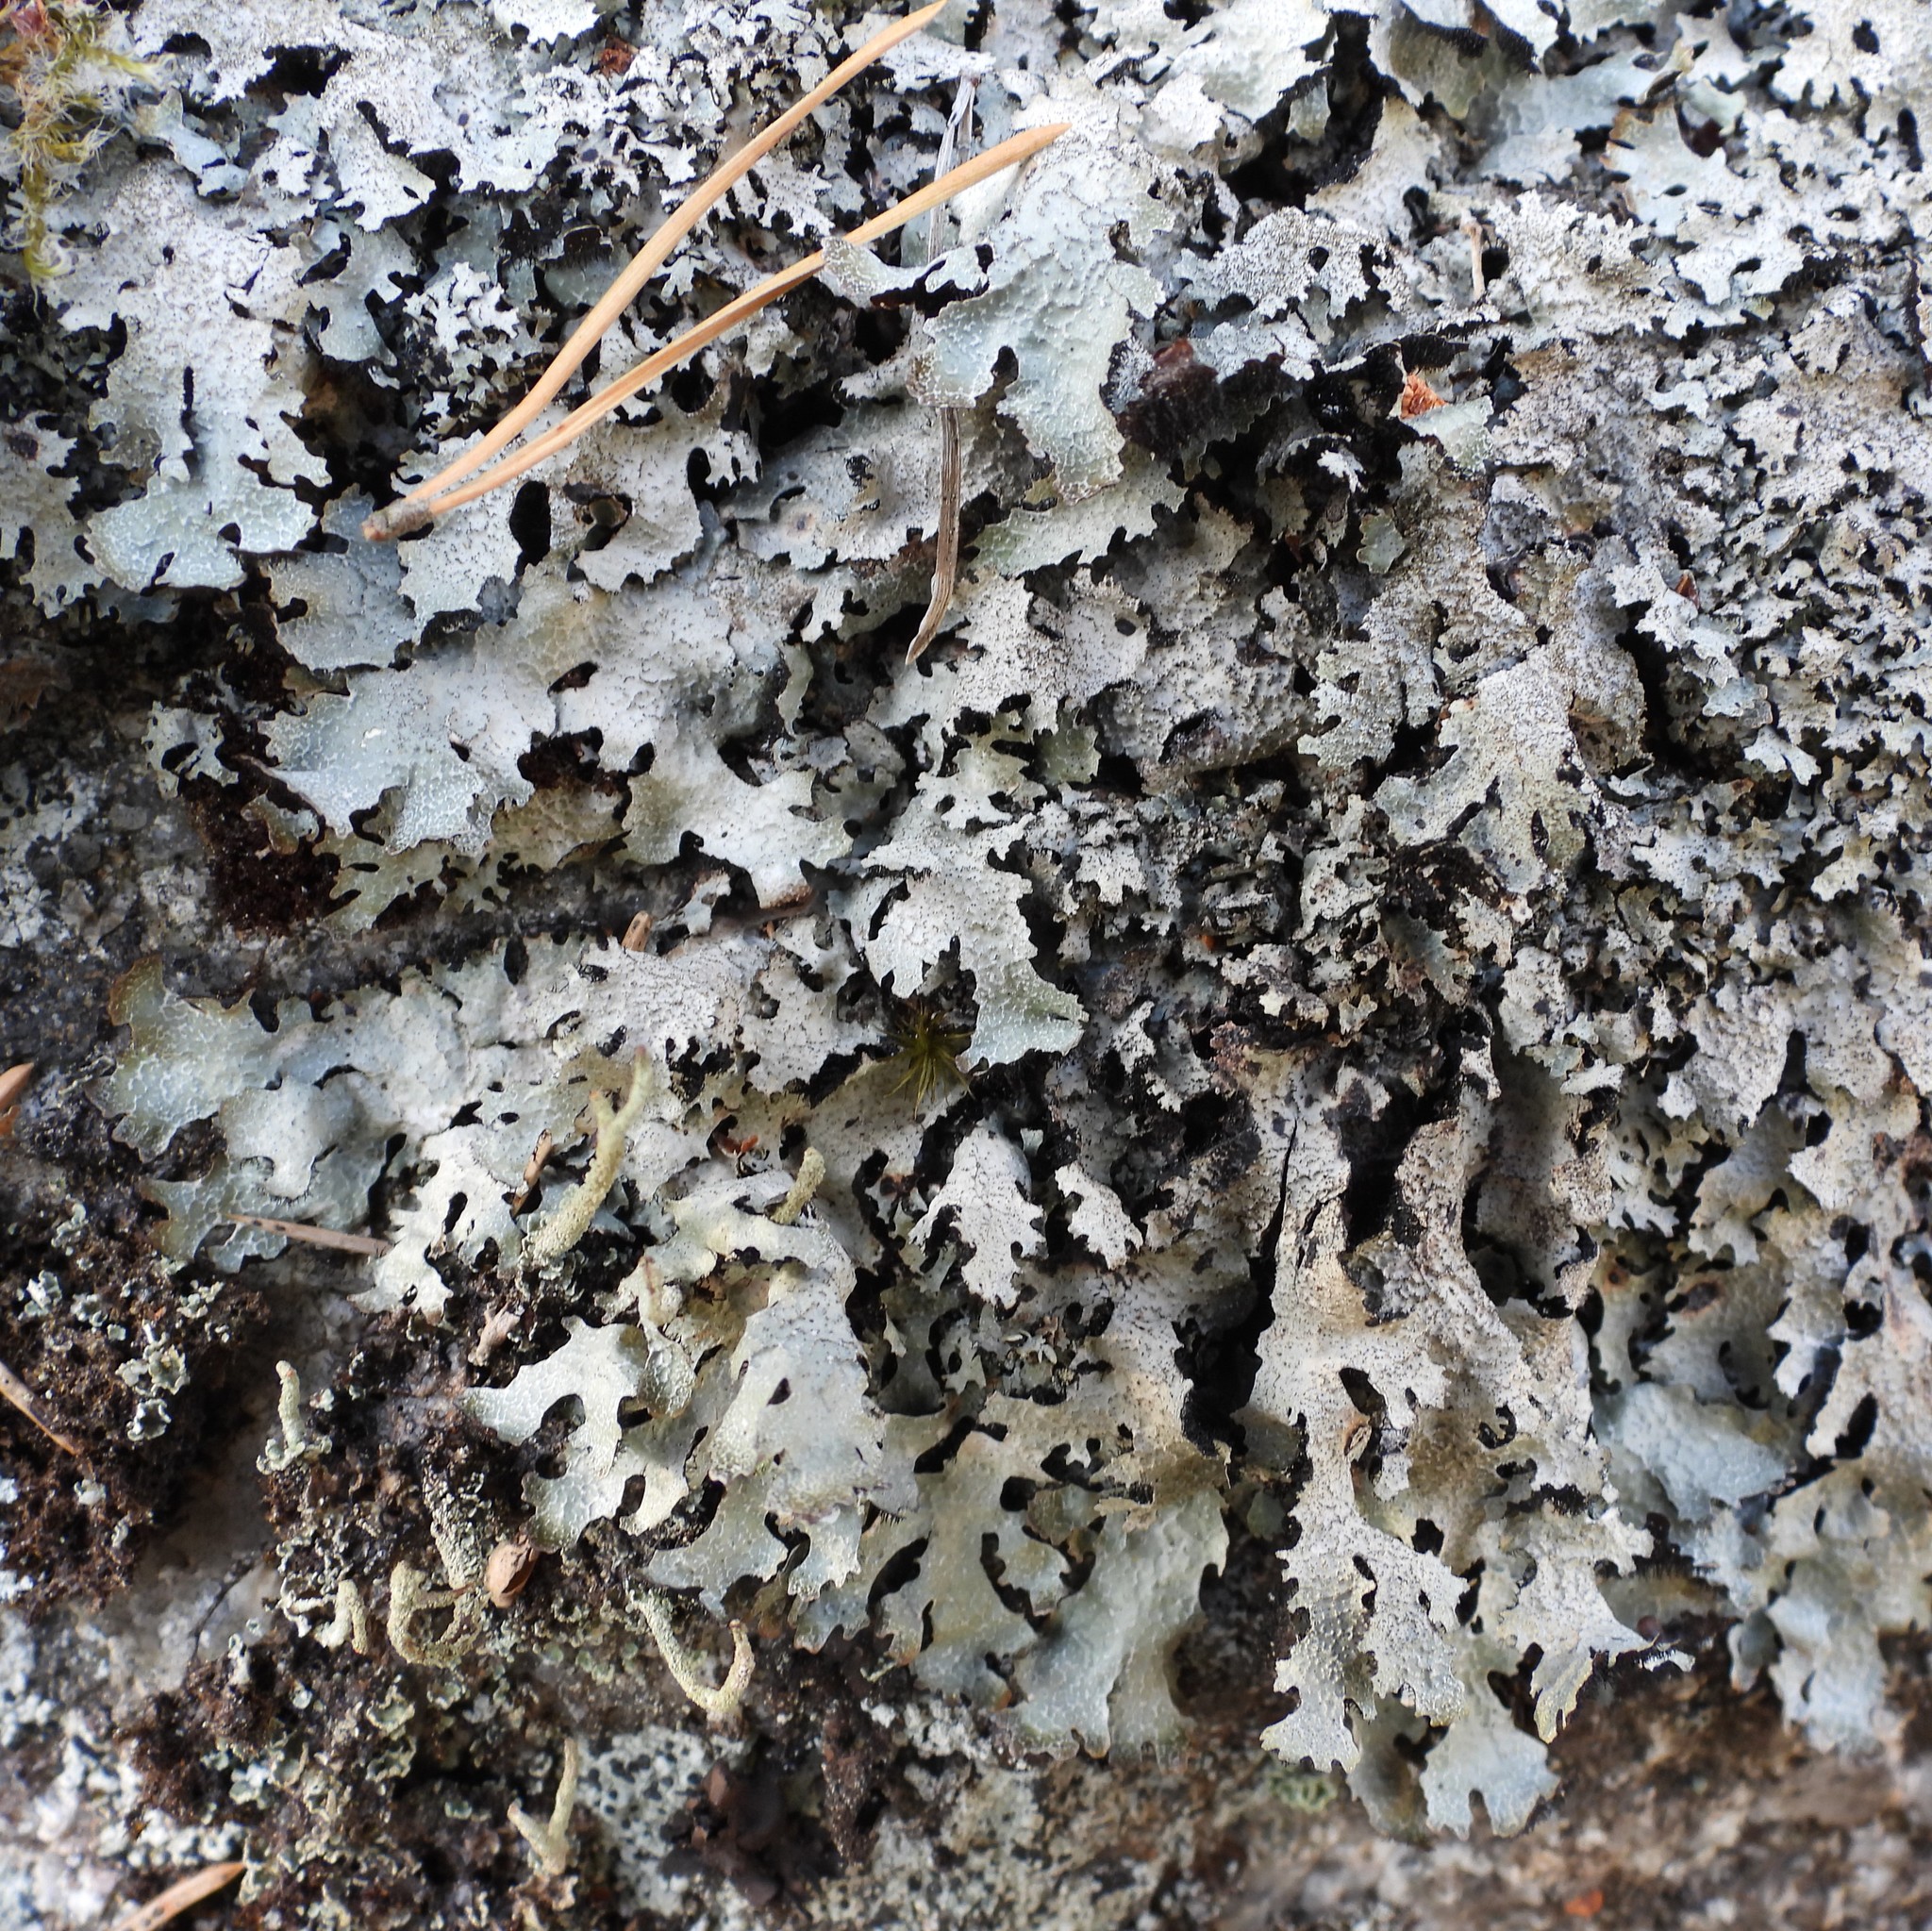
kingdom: Fungi
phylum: Ascomycota
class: Lecanoromycetes
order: Lecanorales
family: Parmeliaceae
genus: Parmelia
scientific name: Parmelia saxatilis
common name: Salted shield lichen
